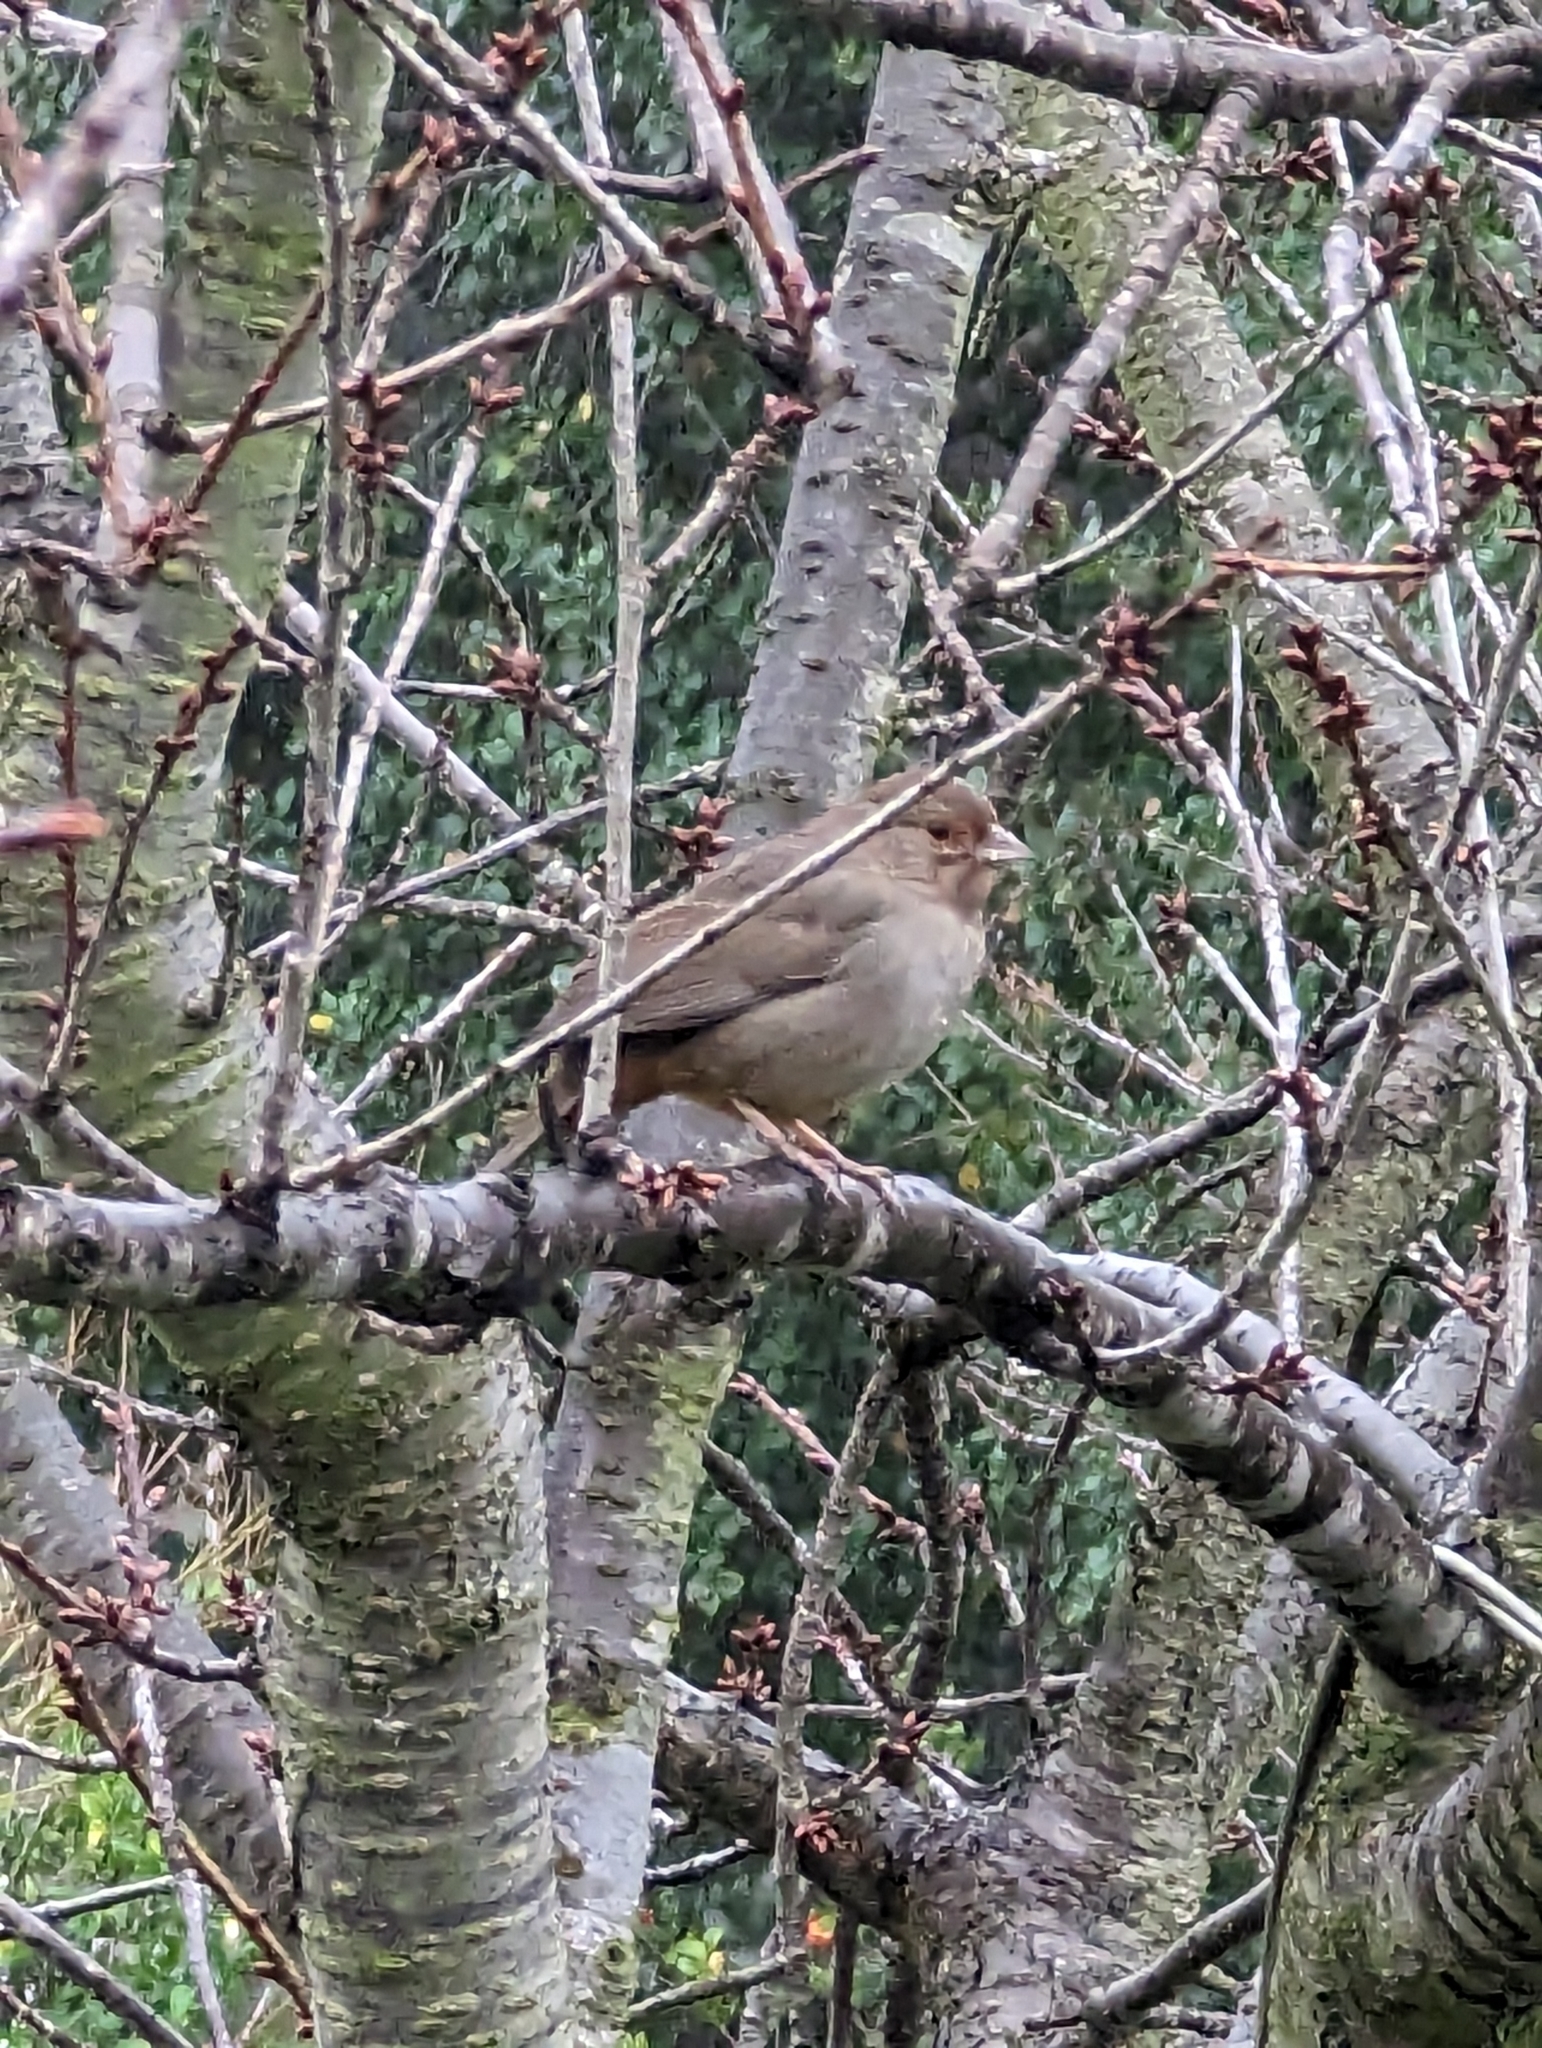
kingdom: Animalia
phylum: Chordata
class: Aves
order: Passeriformes
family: Passerellidae
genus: Melozone
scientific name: Melozone crissalis
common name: California towhee
